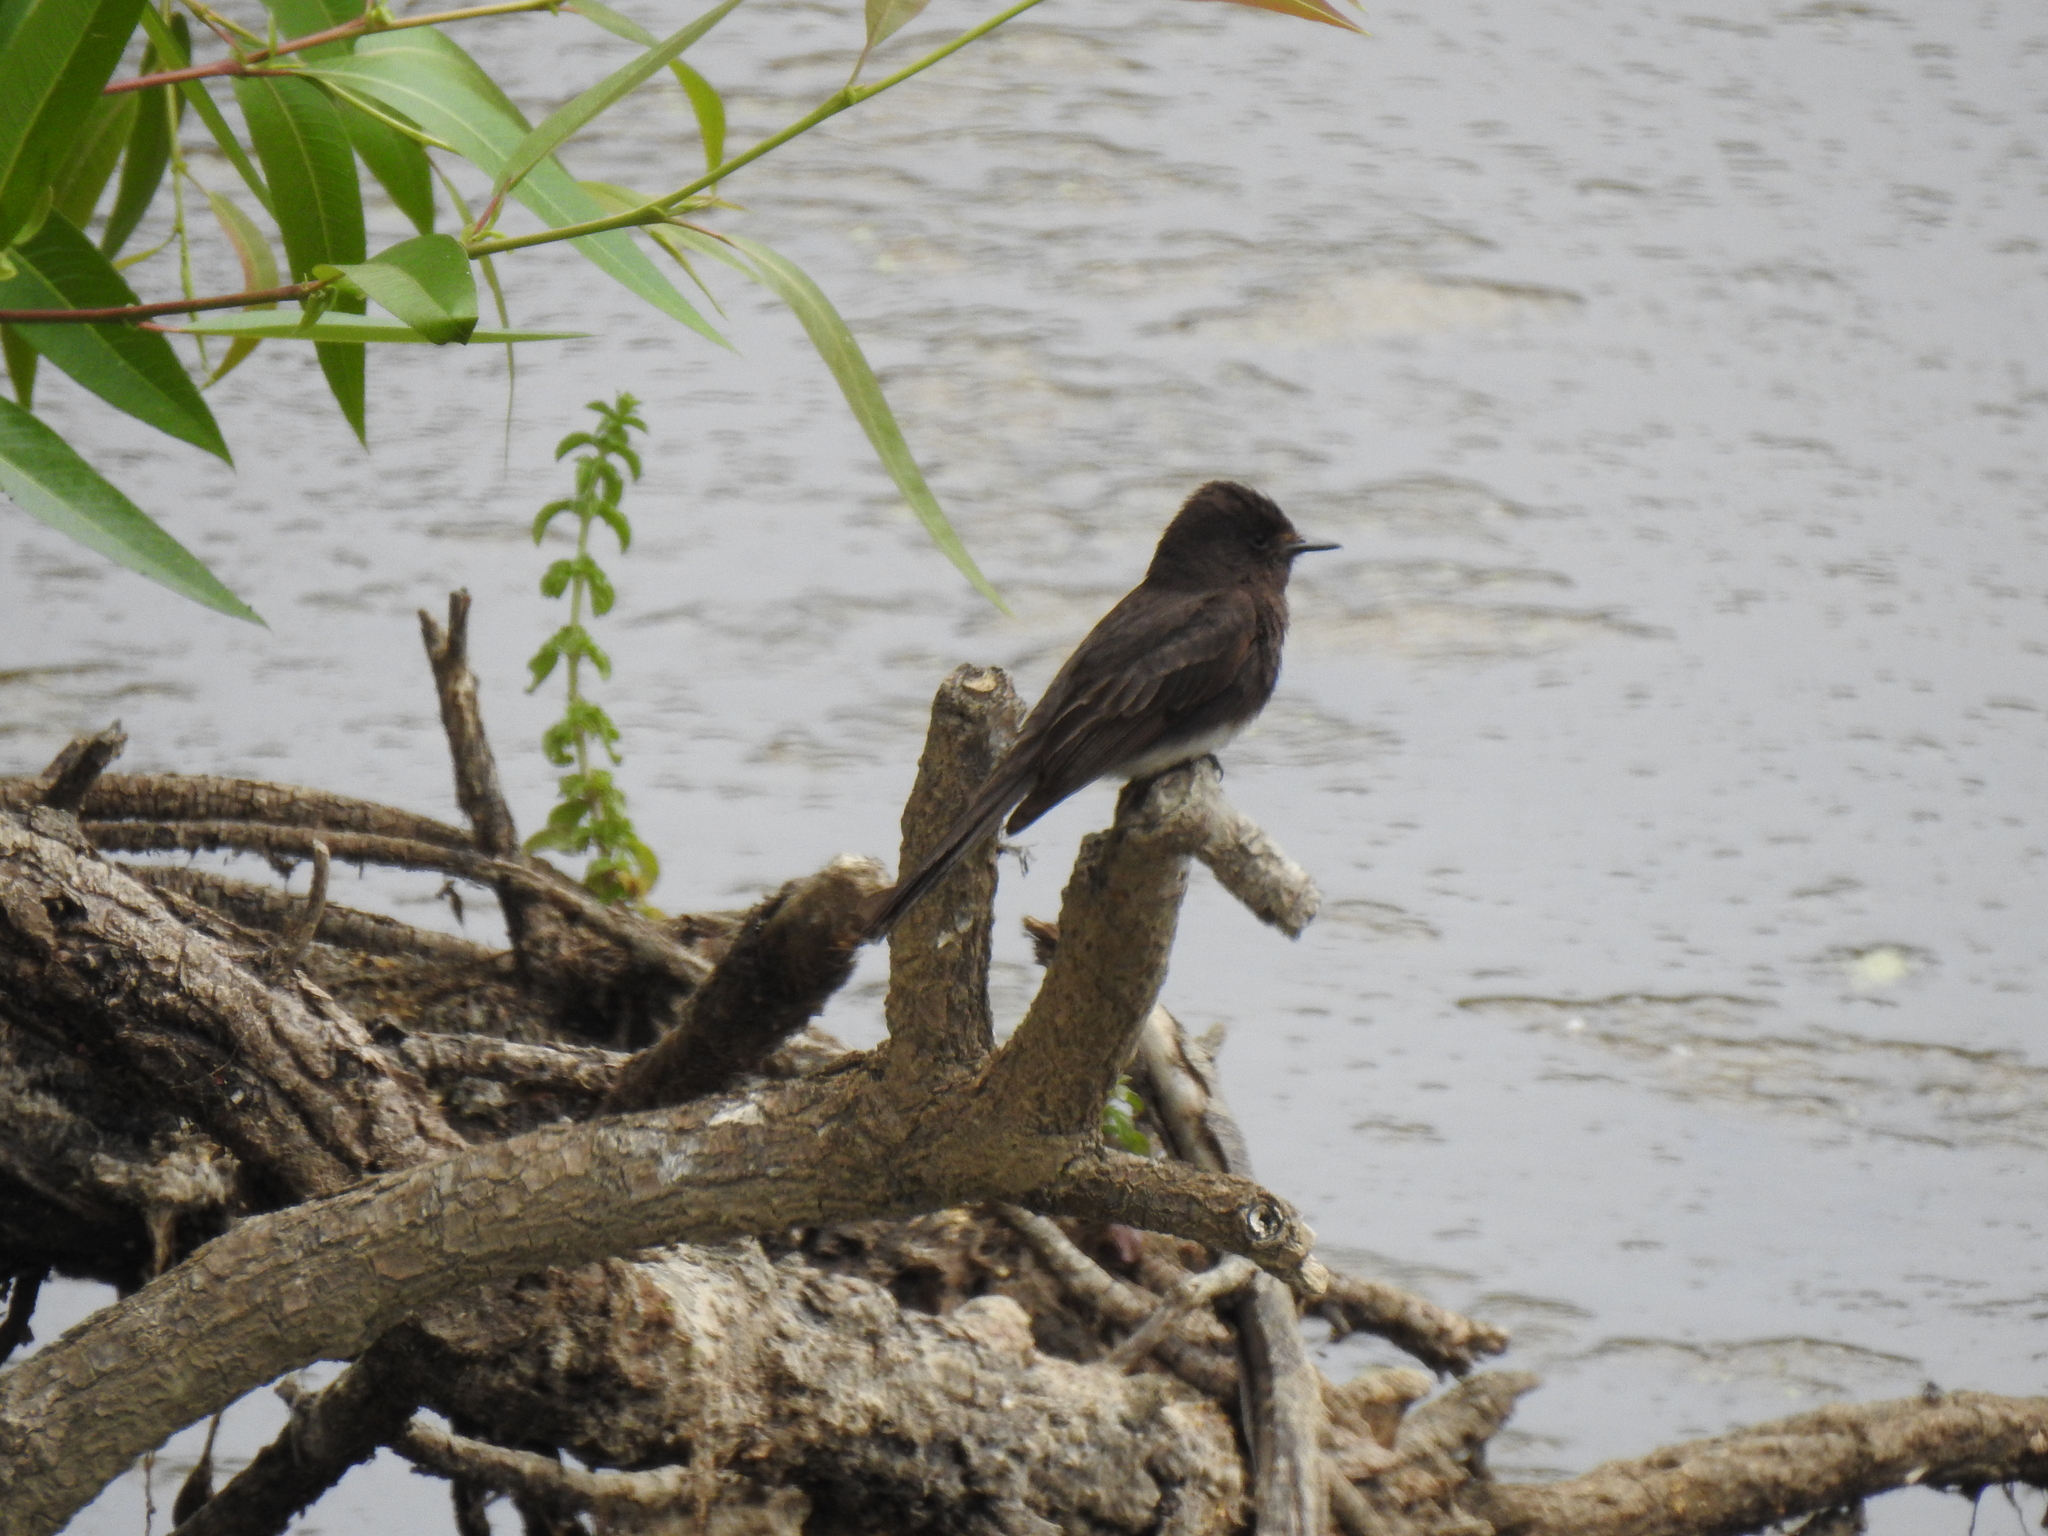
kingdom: Animalia
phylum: Chordata
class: Aves
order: Passeriformes
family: Tyrannidae
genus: Sayornis
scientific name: Sayornis nigricans
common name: Black phoebe
